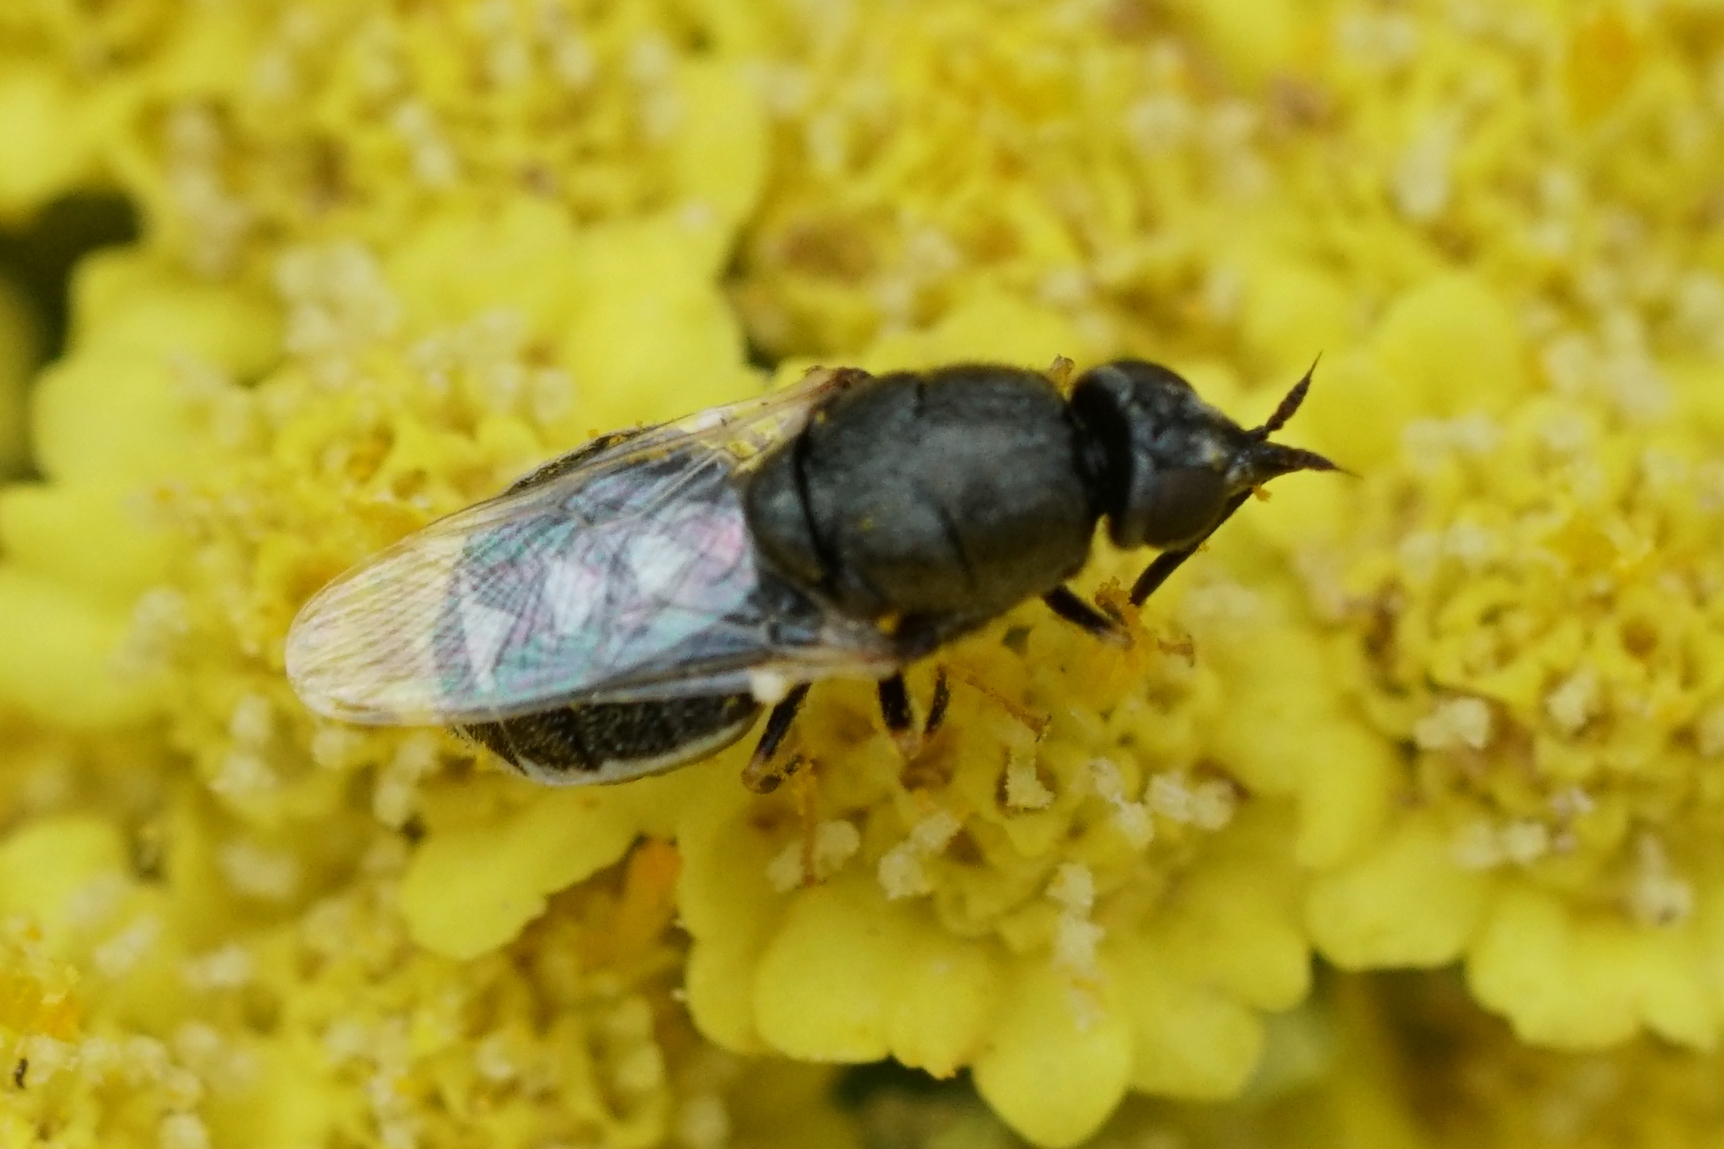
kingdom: Animalia
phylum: Arthropoda
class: Insecta
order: Diptera
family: Stratiomyidae
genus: Nemotelus
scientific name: Nemotelus kansensis
